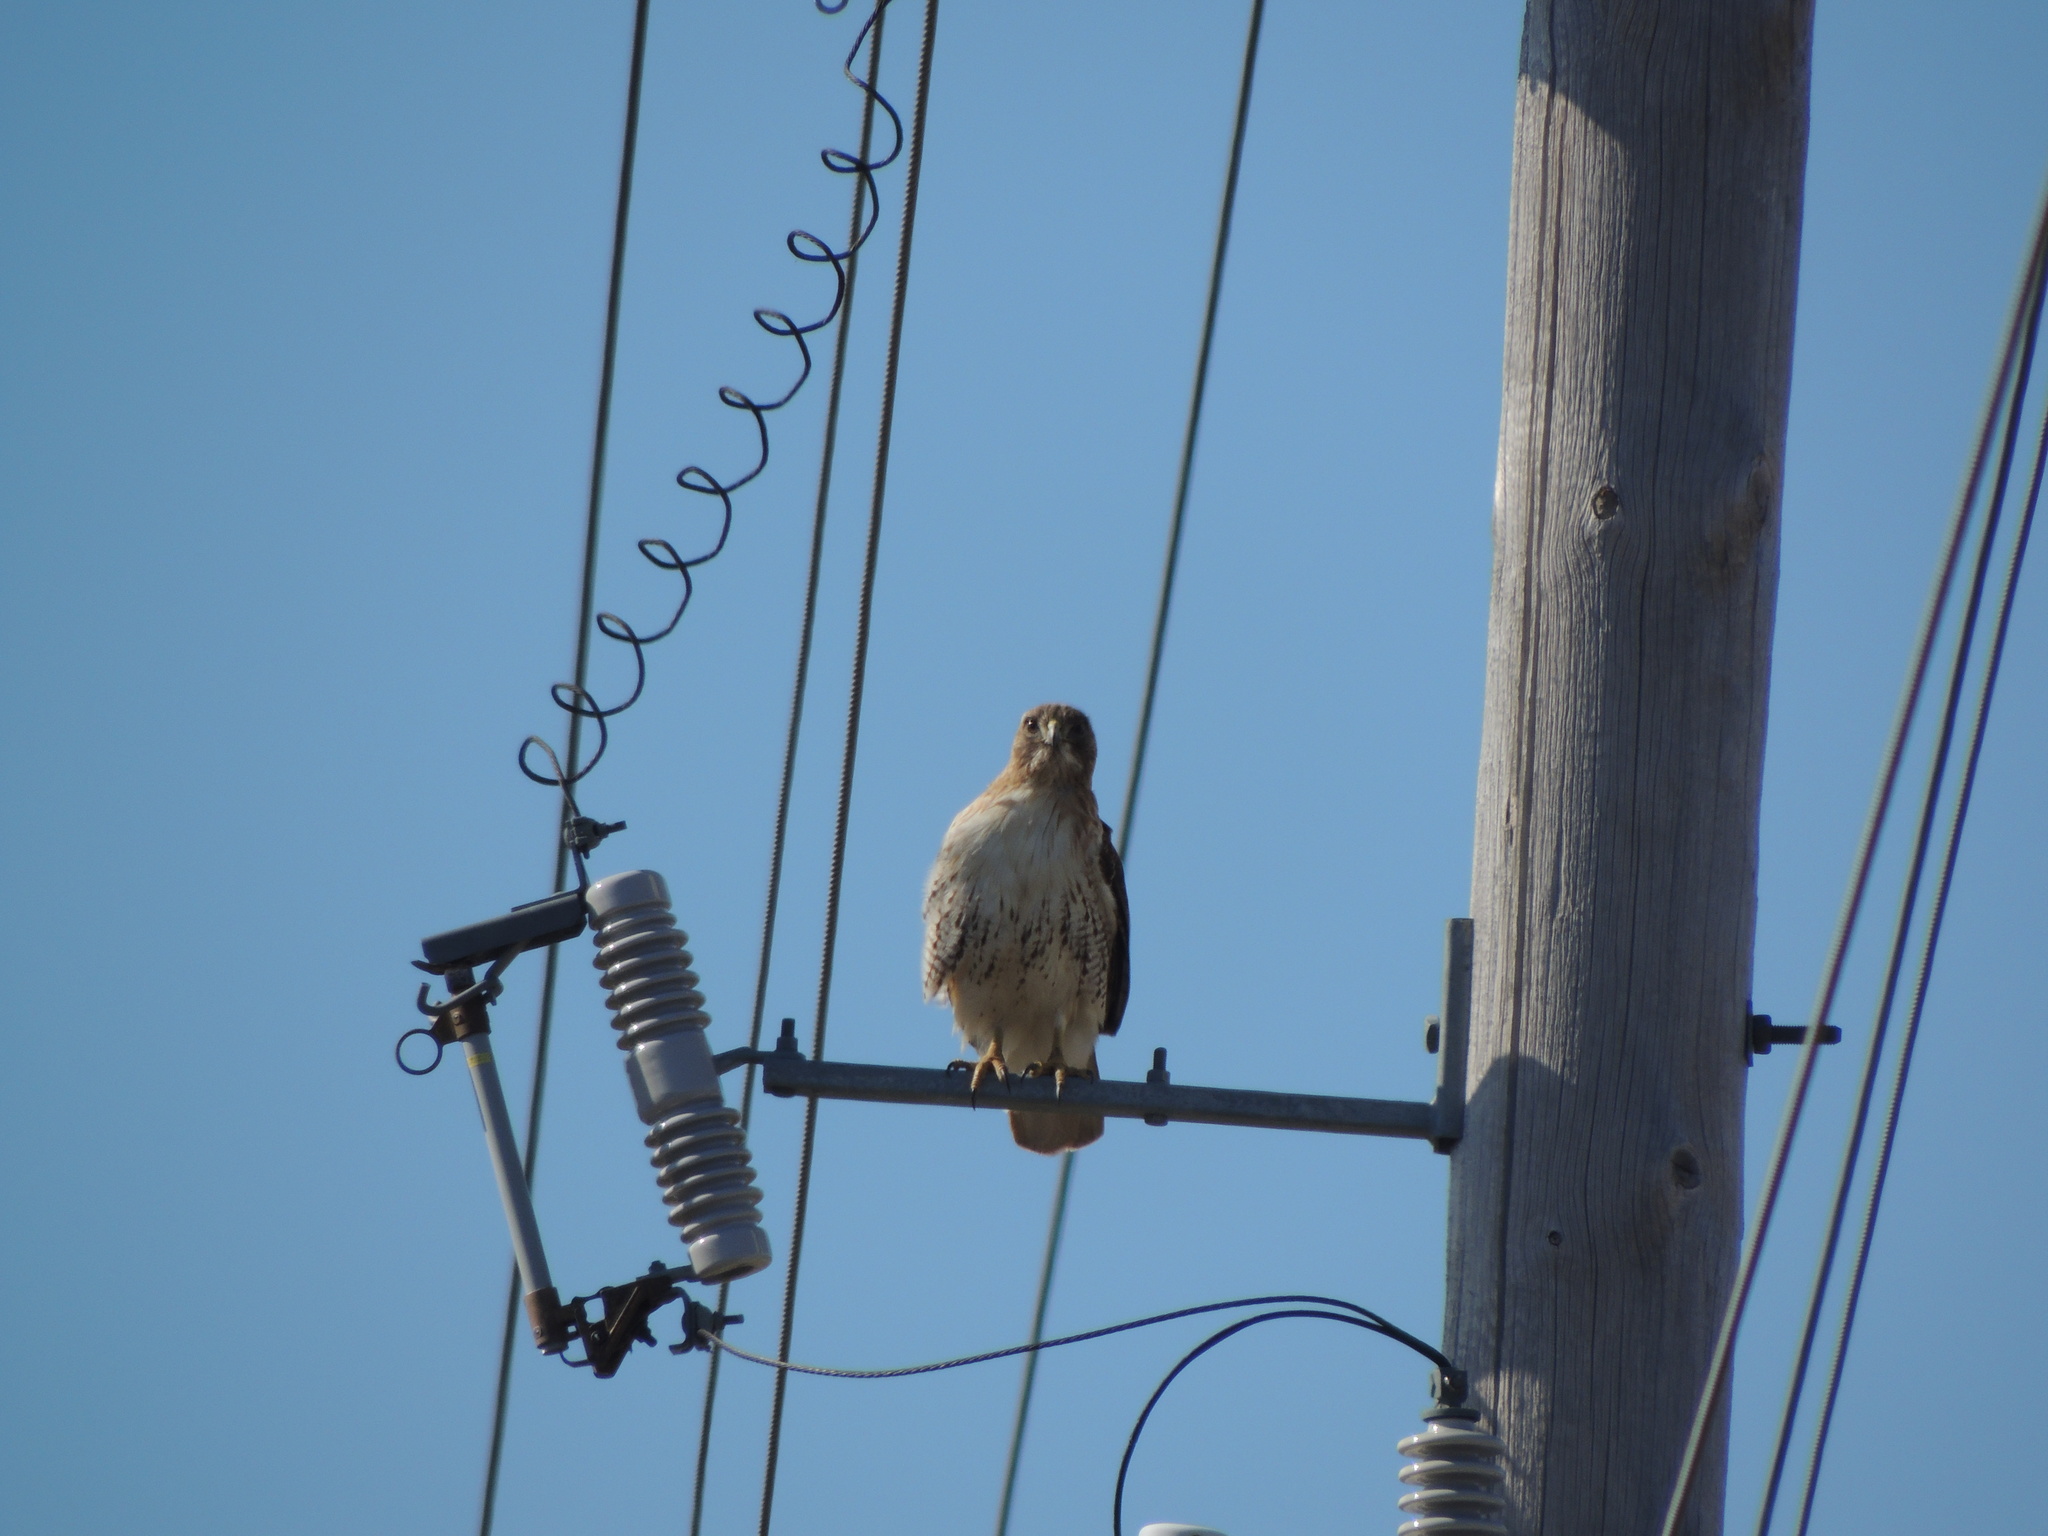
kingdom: Animalia
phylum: Chordata
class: Aves
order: Accipitriformes
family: Accipitridae
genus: Buteo
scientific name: Buteo jamaicensis
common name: Red-tailed hawk
